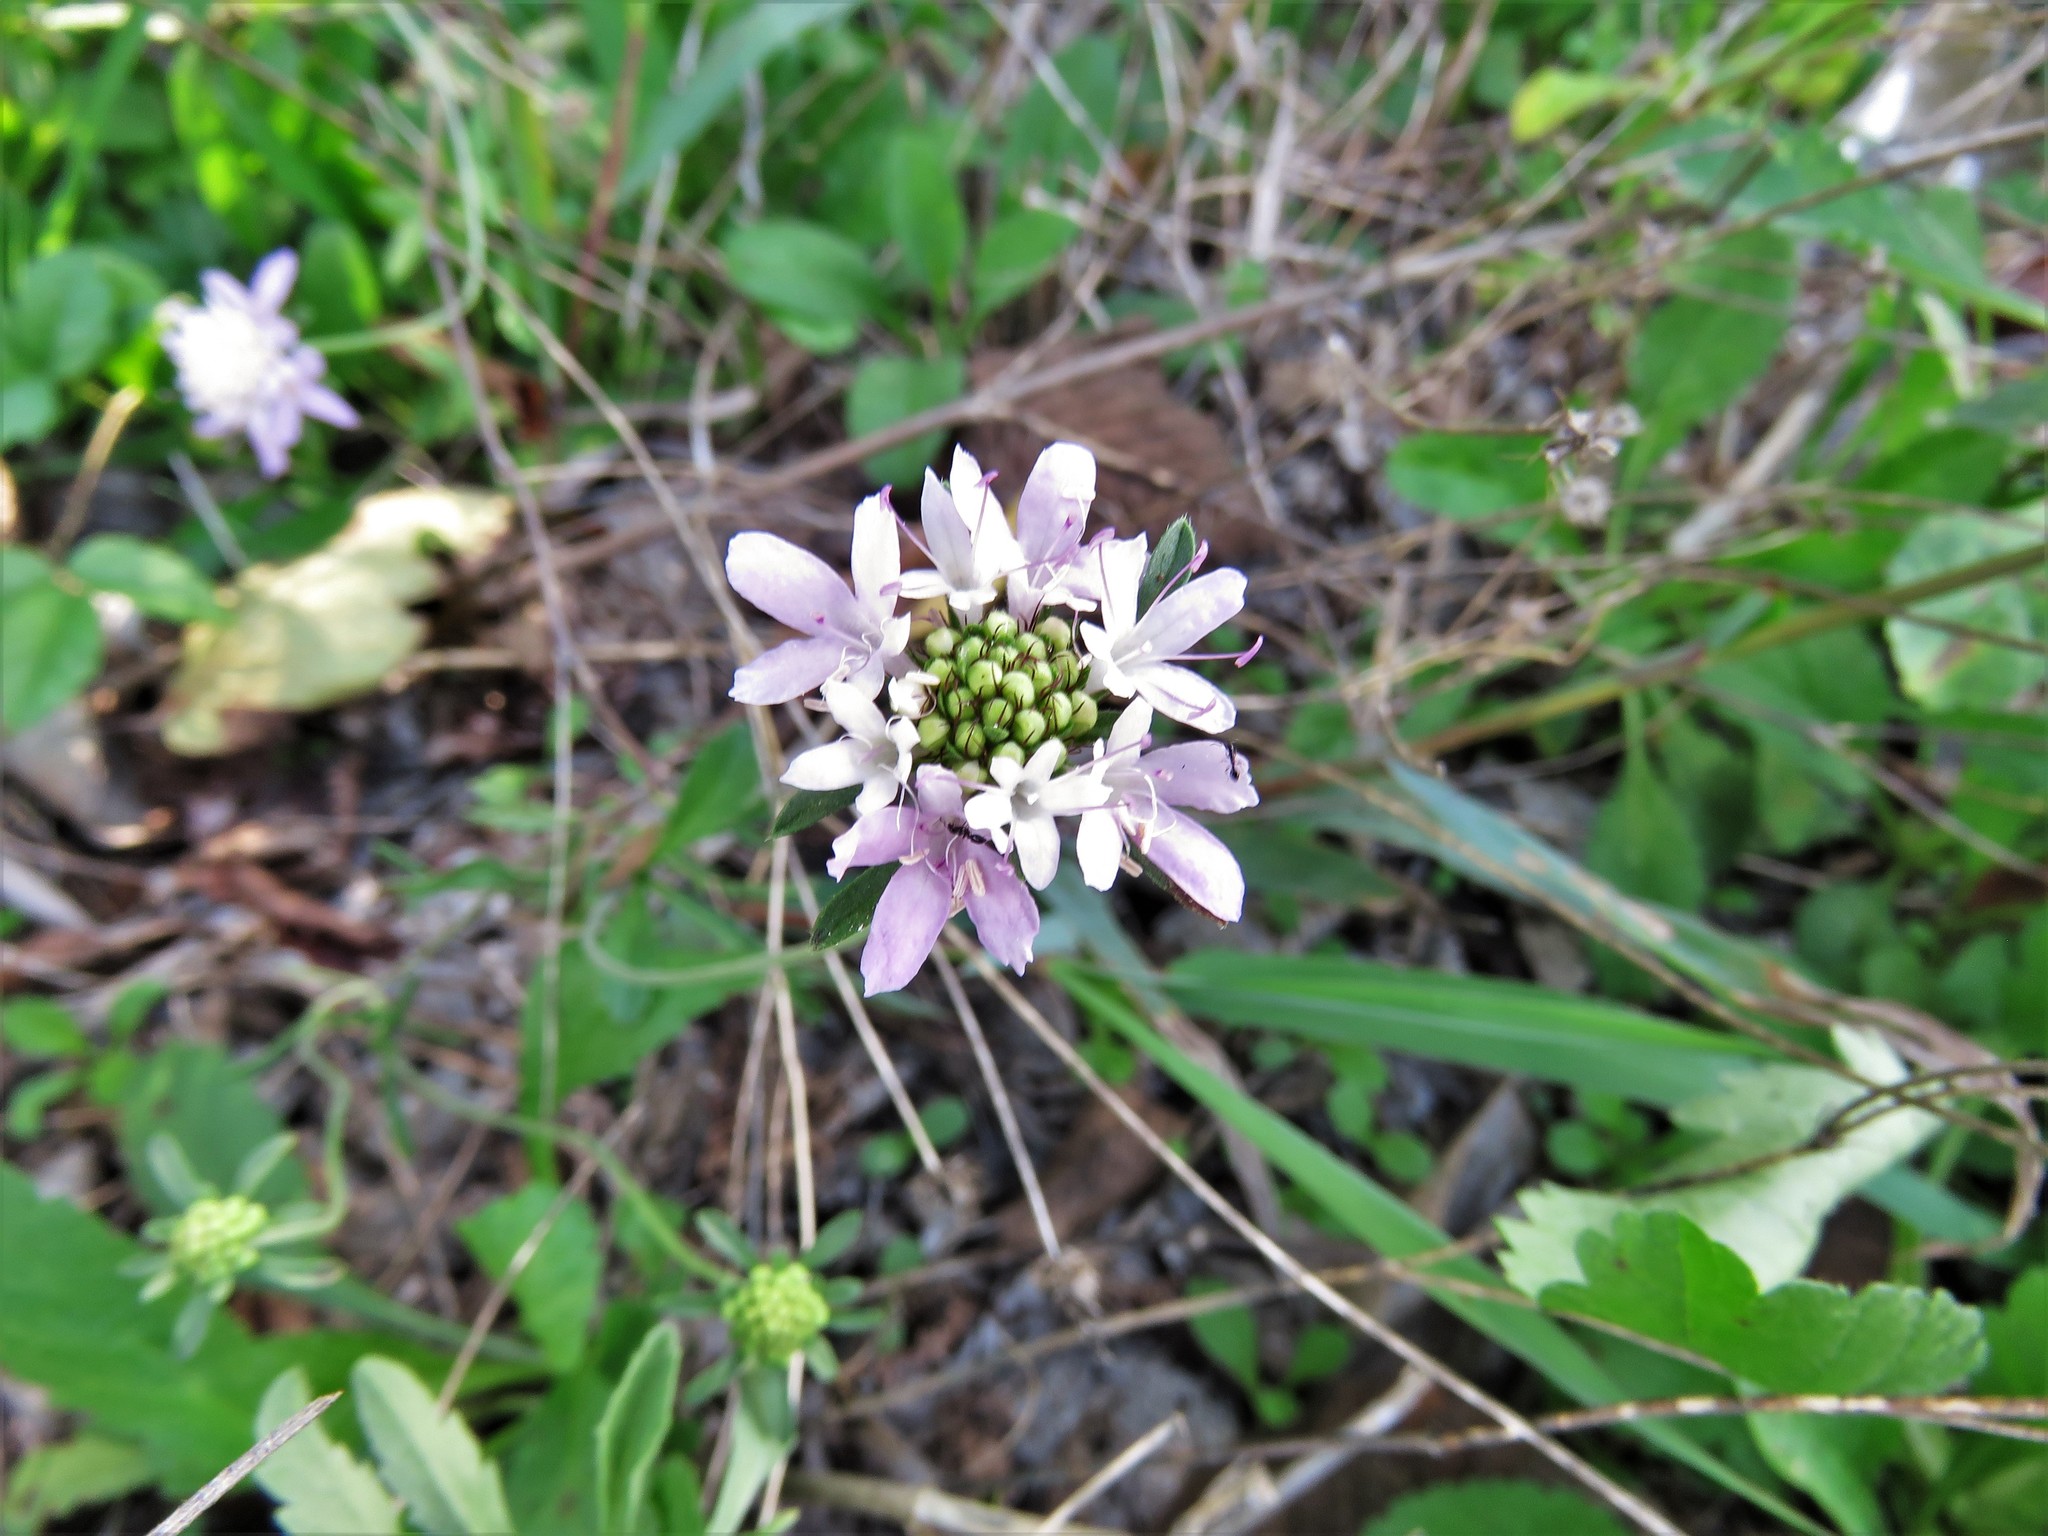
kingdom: Plantae
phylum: Tracheophyta
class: Magnoliopsida
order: Dipsacales
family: Caprifoliaceae
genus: Sixalix
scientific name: Sixalix atropurpurea
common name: Sweet scabious
